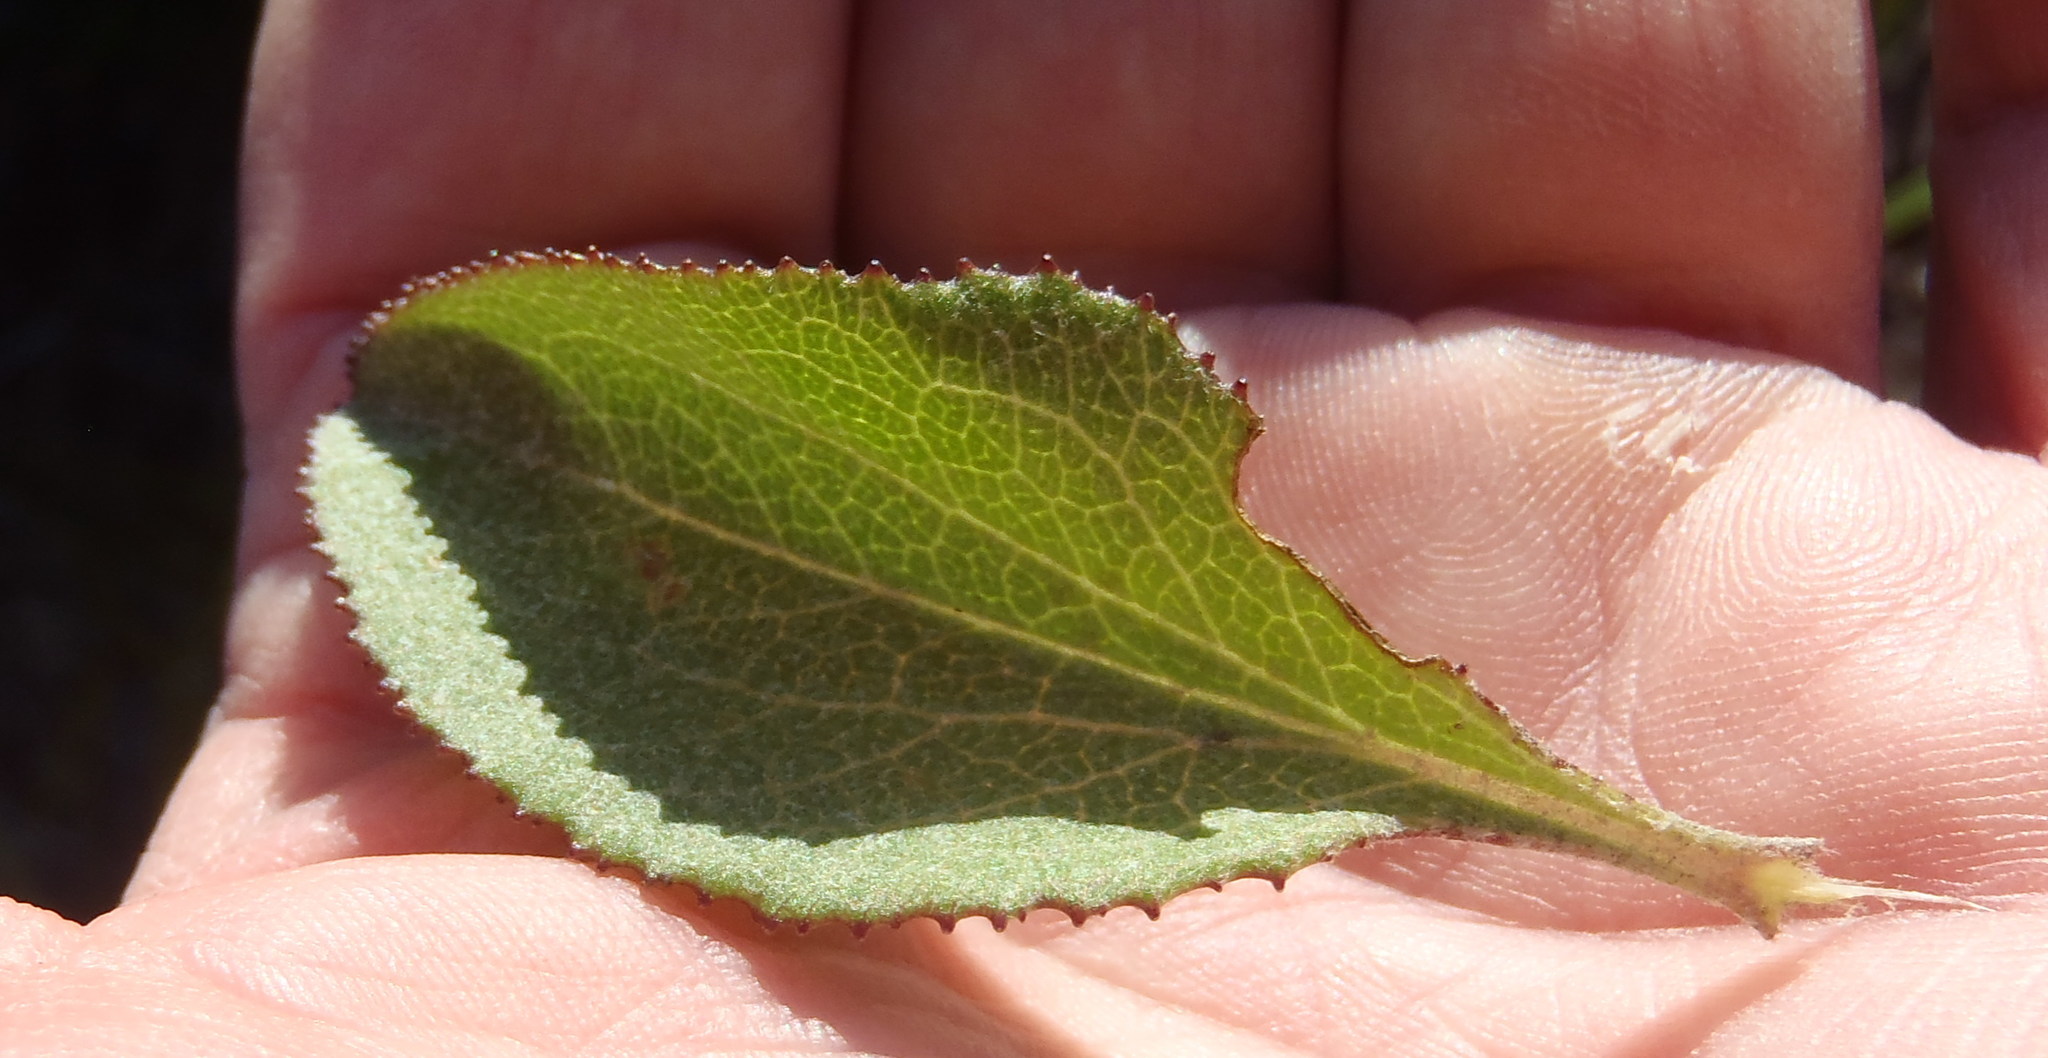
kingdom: Plantae
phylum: Tracheophyta
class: Magnoliopsida
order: Asterales
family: Asteraceae
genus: Senecio
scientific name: Senecio crenatus
